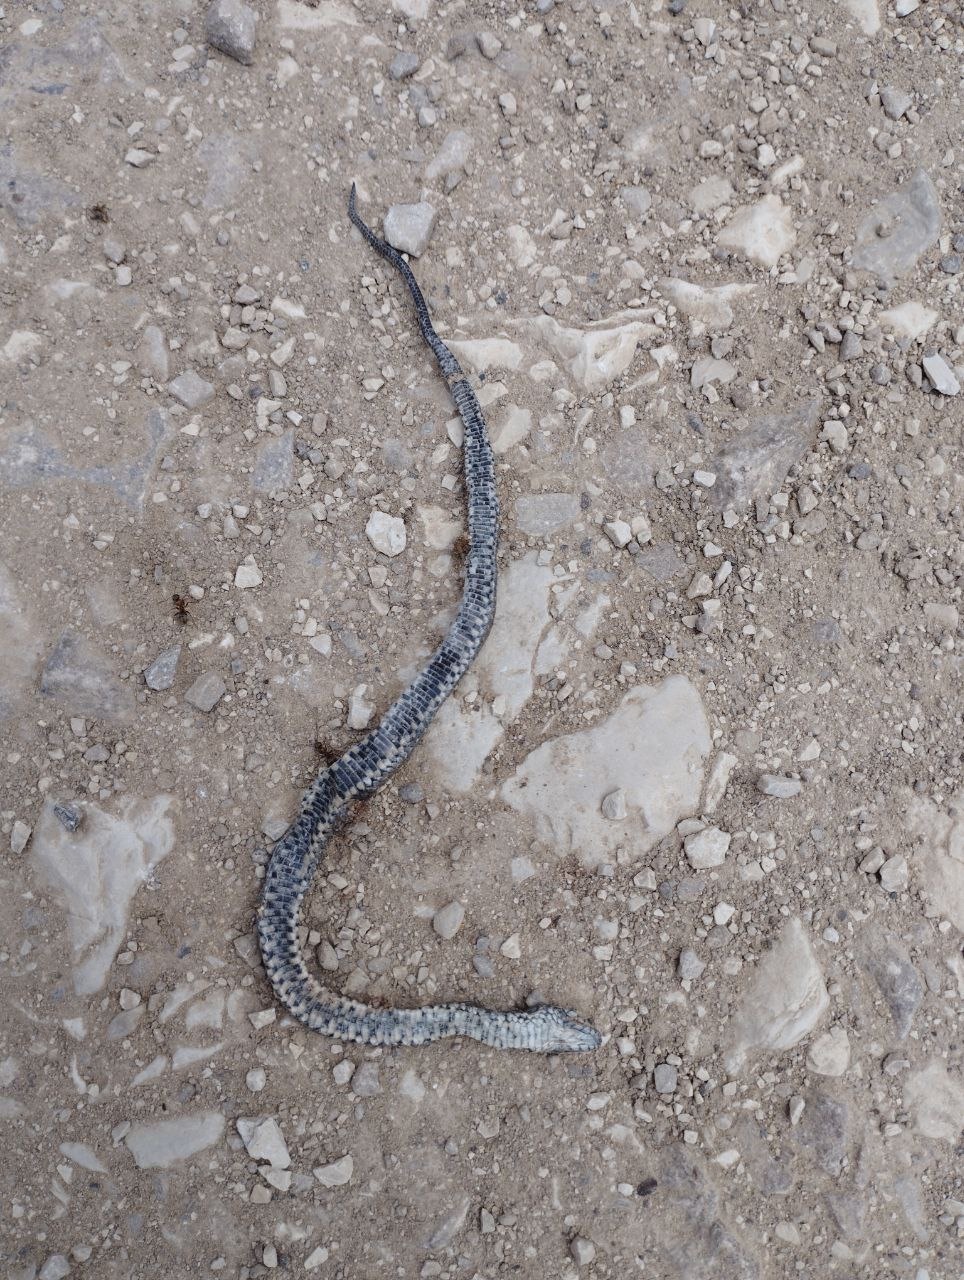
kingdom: Animalia
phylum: Chordata
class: Squamata
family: Colubridae
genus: Natrix
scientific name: Natrix tessellata
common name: Dice snake
